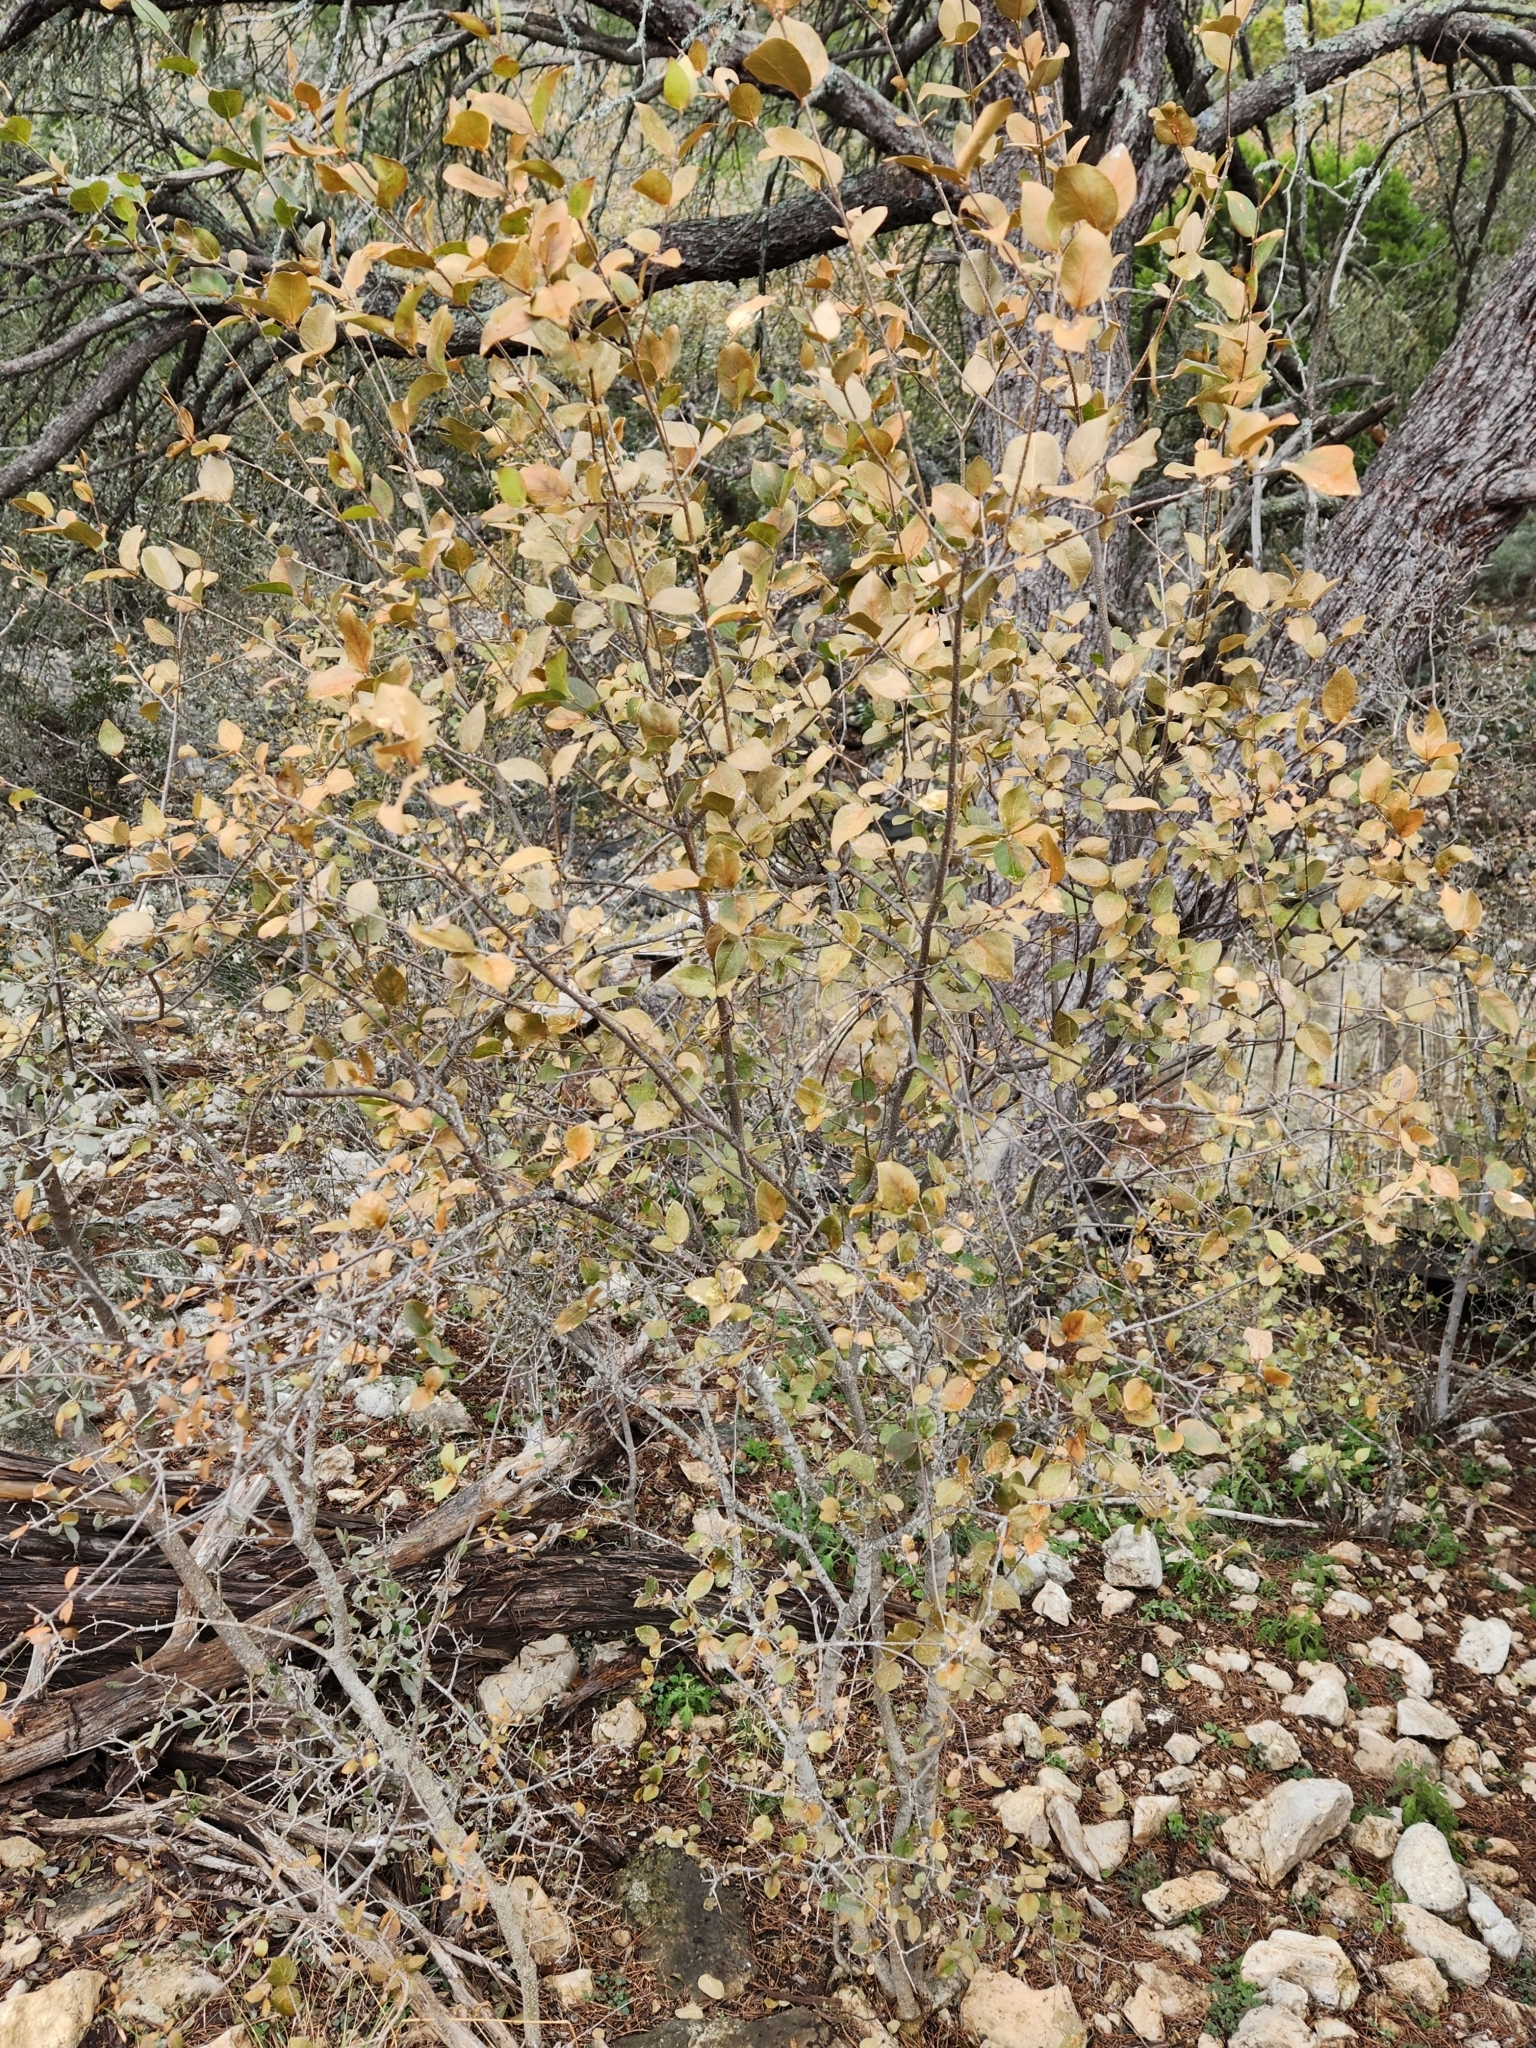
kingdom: Plantae
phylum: Tracheophyta
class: Magnoliopsida
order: Lamiales
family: Oleaceae
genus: Forestiera
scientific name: Forestiera reticulata
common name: Netleaf swamp-privet
